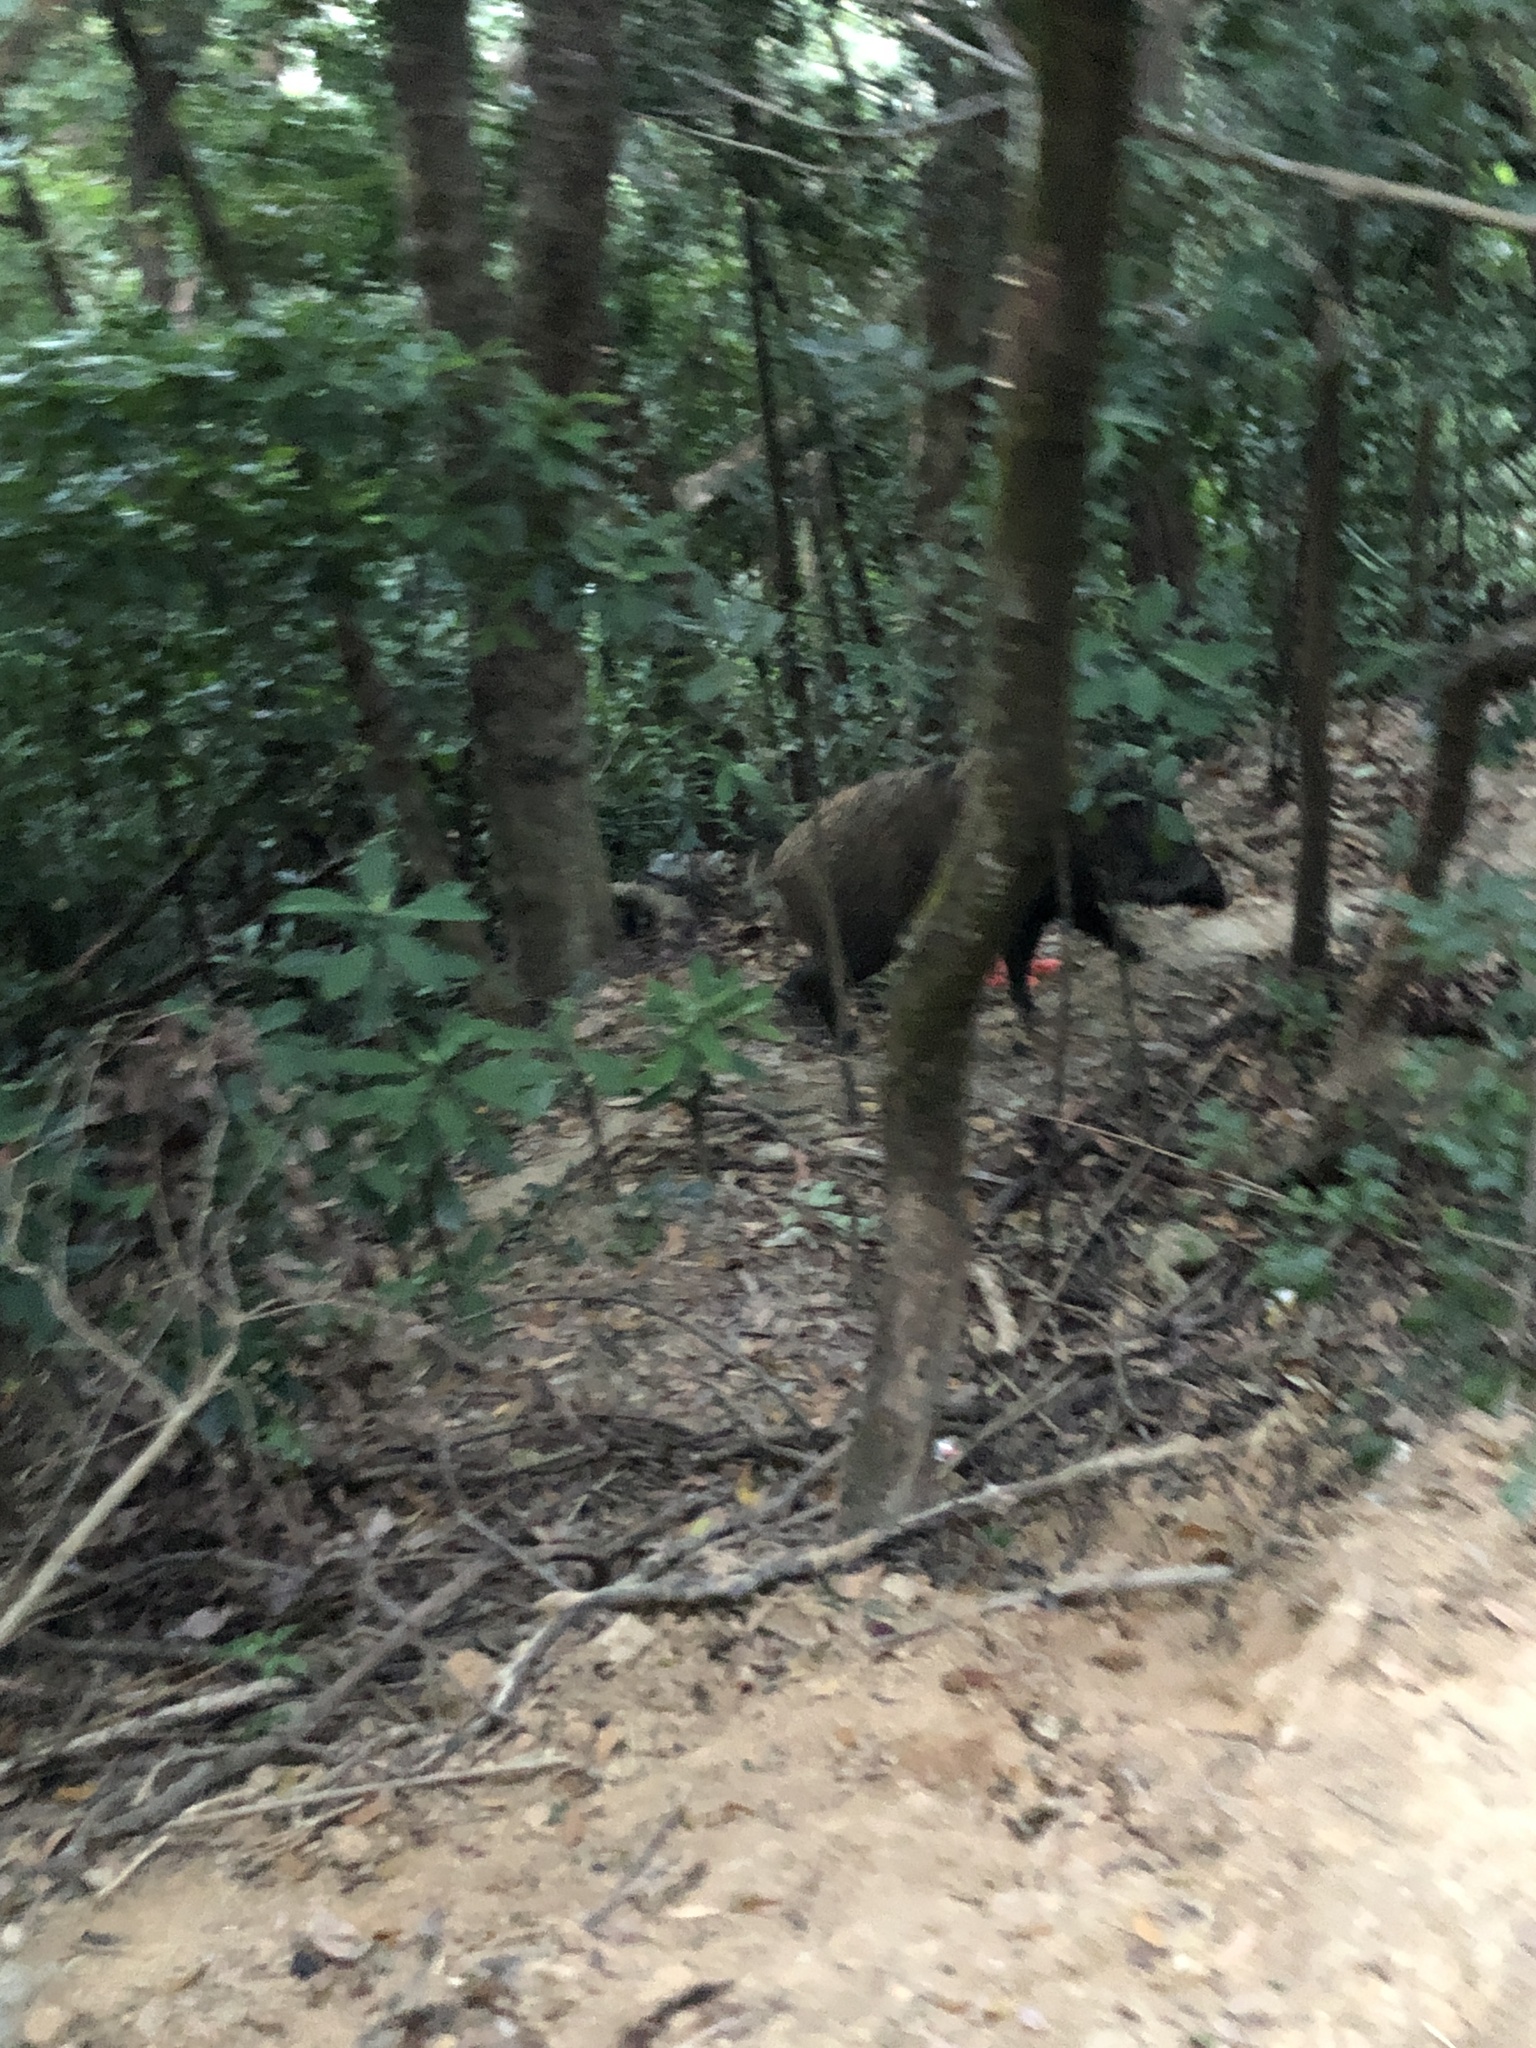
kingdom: Animalia
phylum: Chordata
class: Mammalia
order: Artiodactyla
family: Suidae
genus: Sus
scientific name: Sus scrofa
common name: Wild boar
